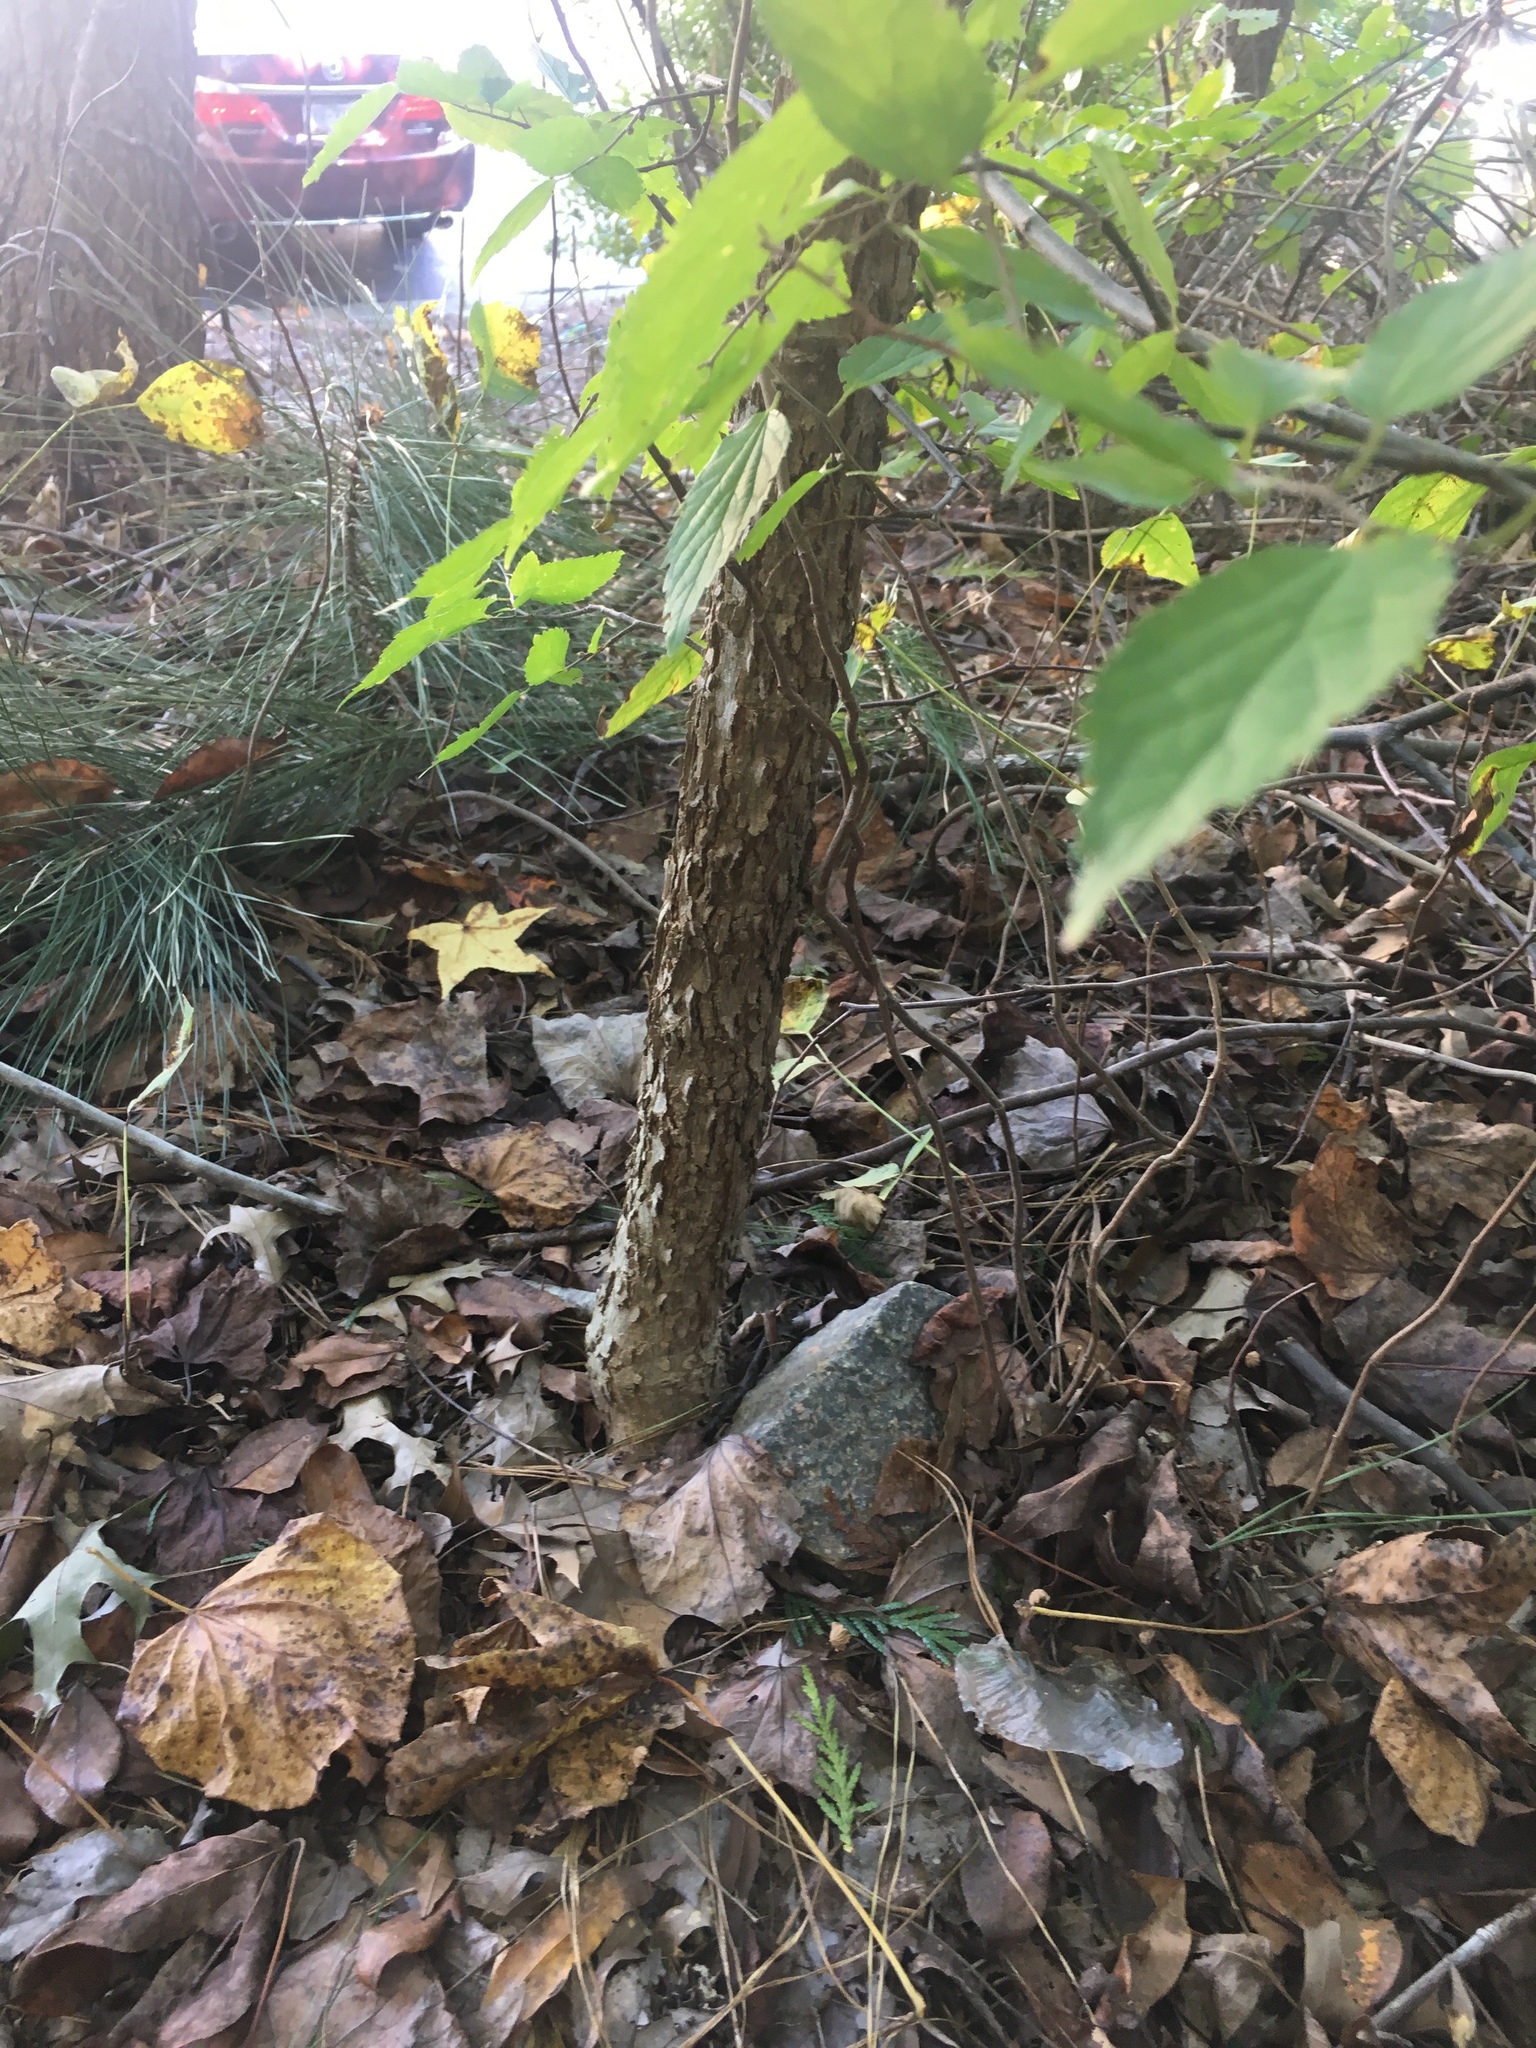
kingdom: Plantae
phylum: Tracheophyta
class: Magnoliopsida
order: Rosales
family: Cannabaceae
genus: Celtis
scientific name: Celtis occidentalis
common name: Common hackberry
